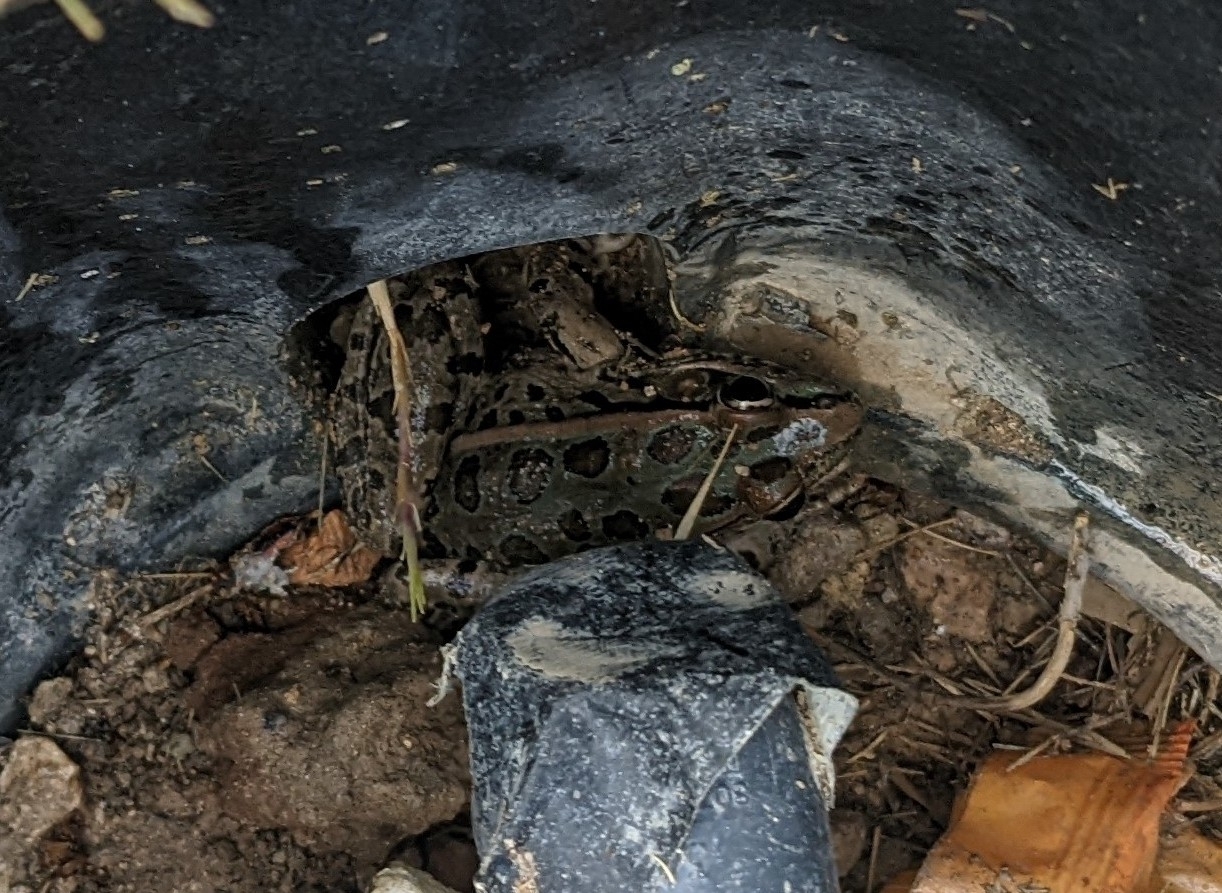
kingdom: Animalia
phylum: Chordata
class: Amphibia
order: Anura
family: Ranidae
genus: Lithobates
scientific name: Lithobates berlandieri
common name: Rio grande leopard frog
